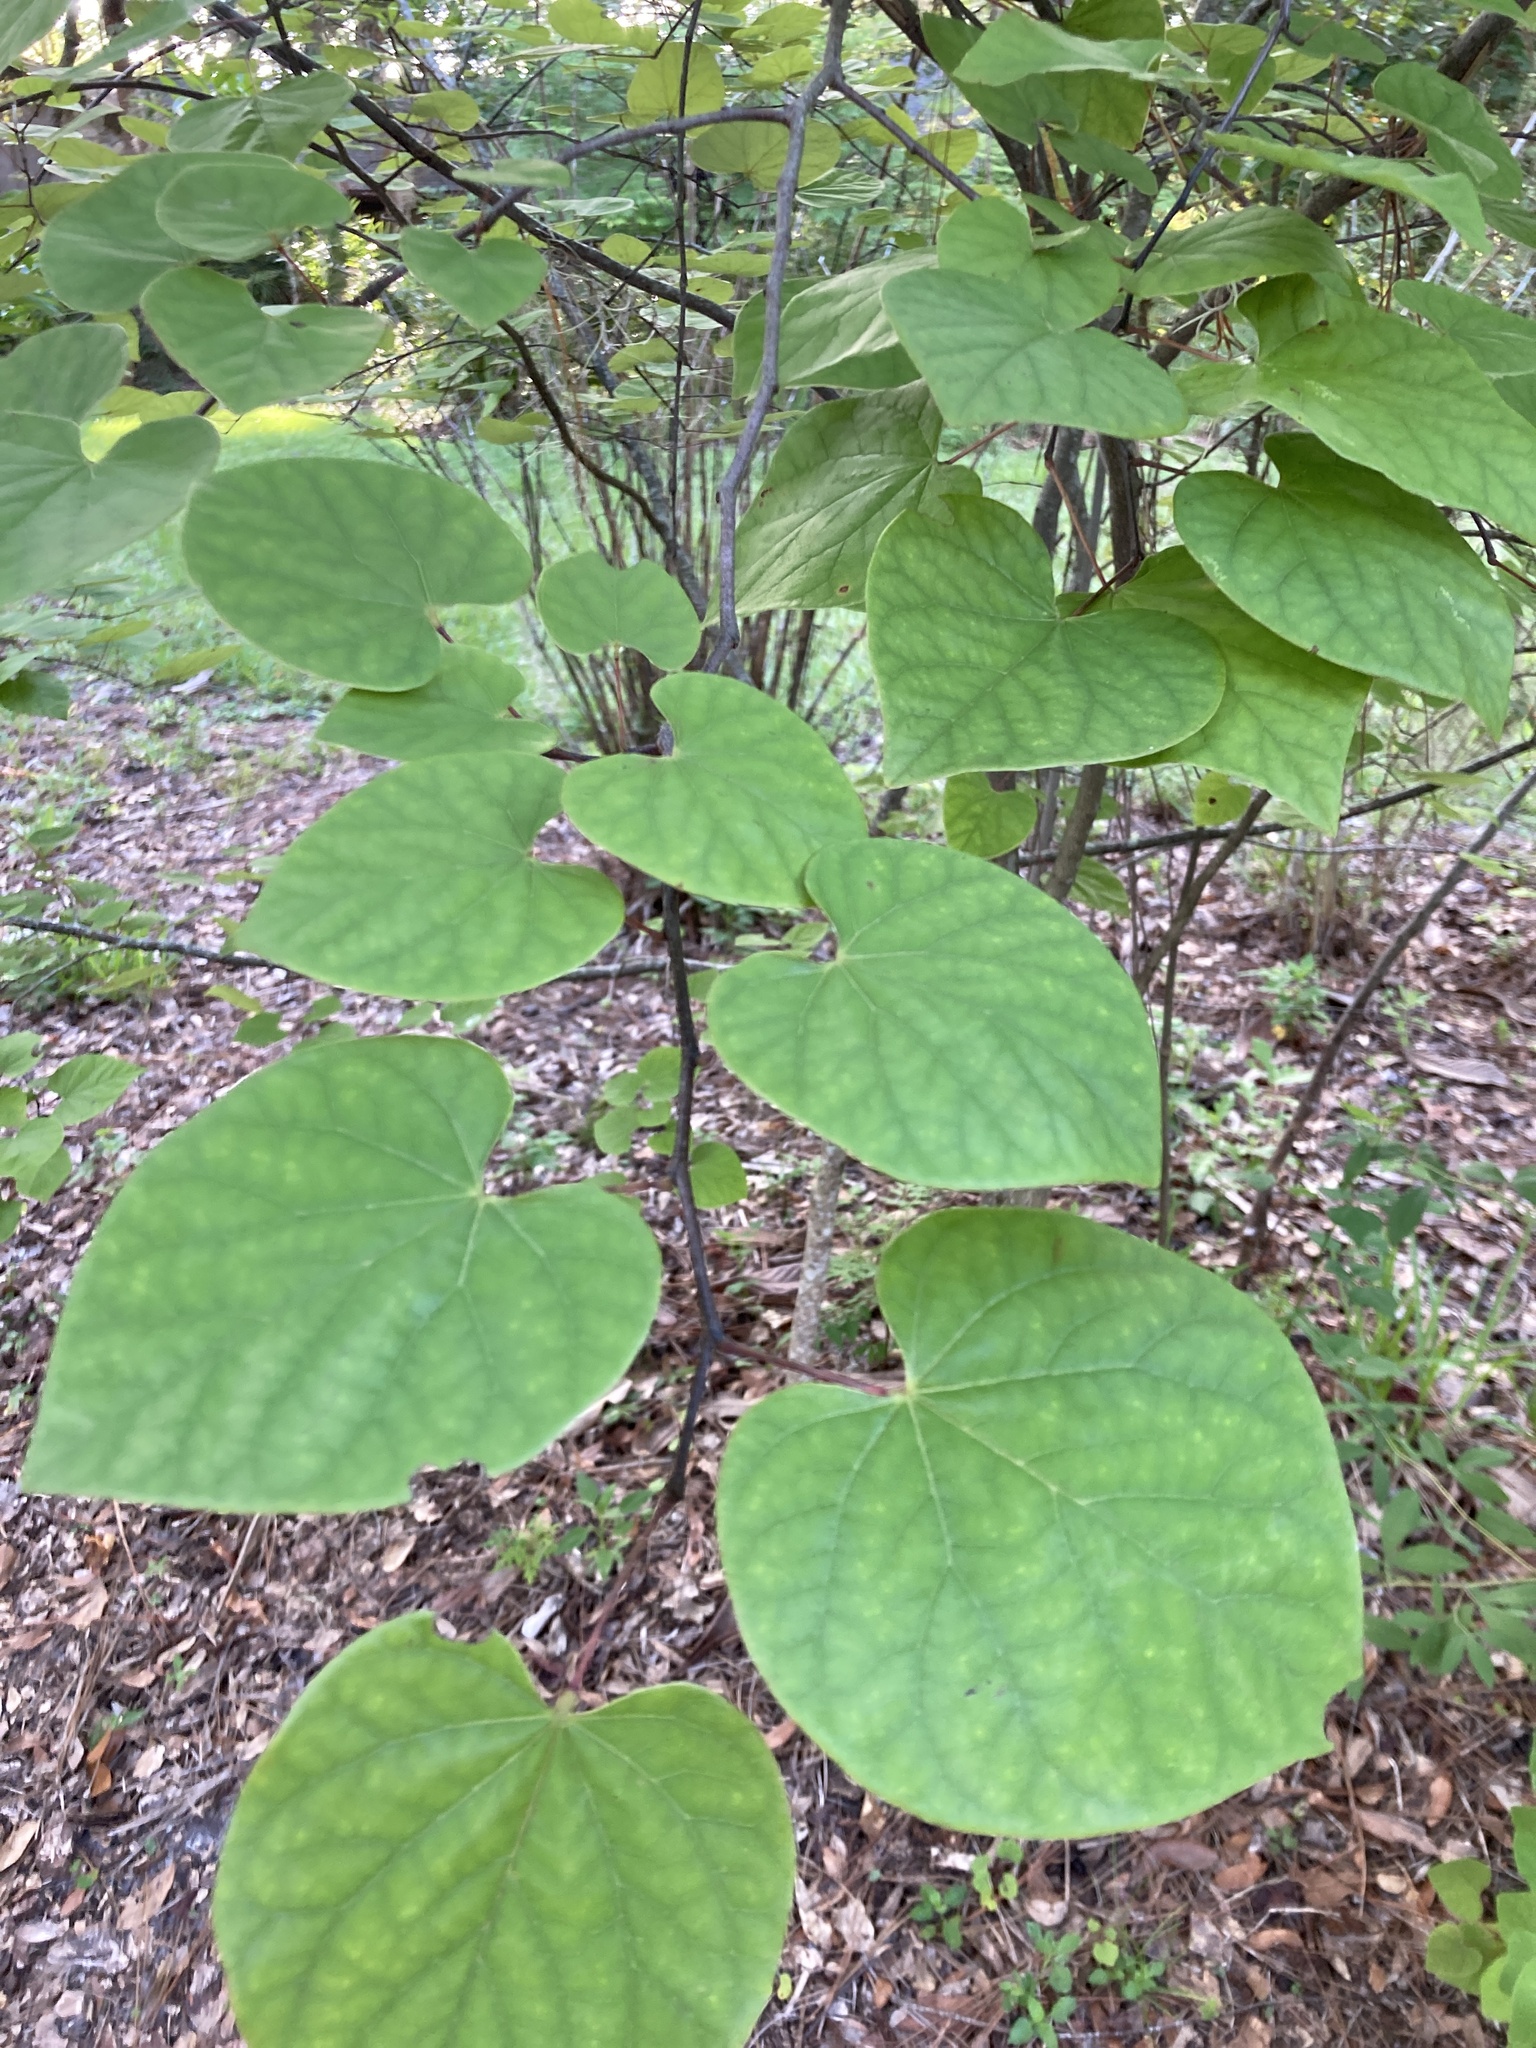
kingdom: Plantae
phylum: Tracheophyta
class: Magnoliopsida
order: Fabales
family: Fabaceae
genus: Cercis
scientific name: Cercis canadensis
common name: Eastern redbud
